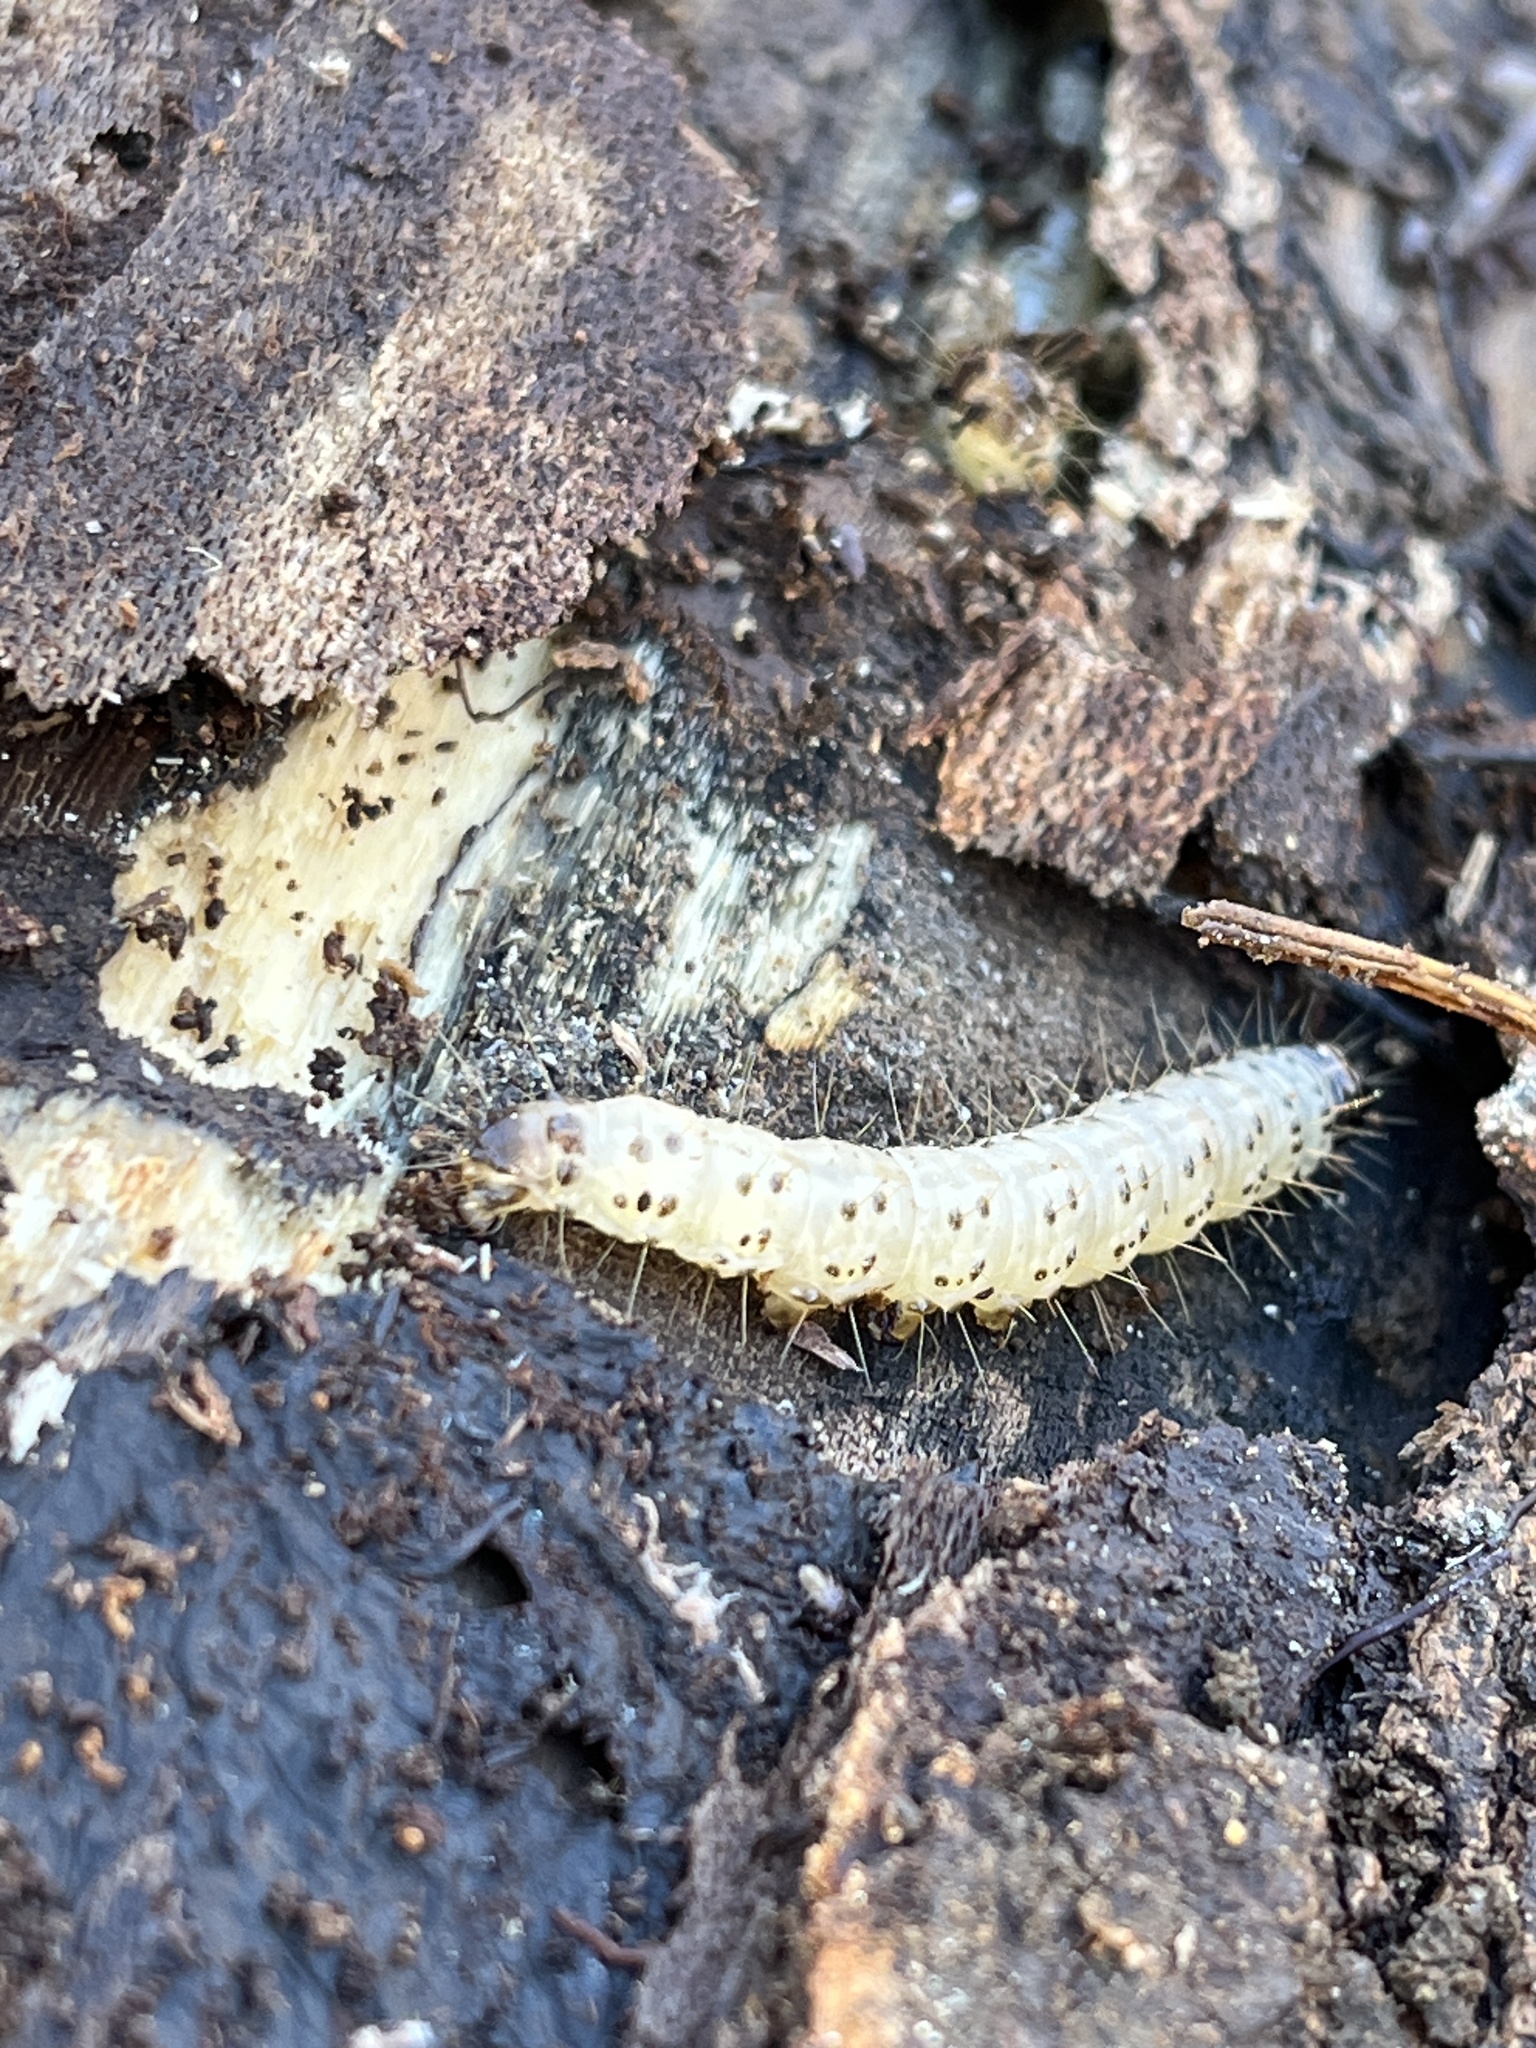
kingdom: Animalia
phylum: Arthropoda
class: Insecta
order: Lepidoptera
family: Erebidae
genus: Scolecocampa
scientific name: Scolecocampa liburna
